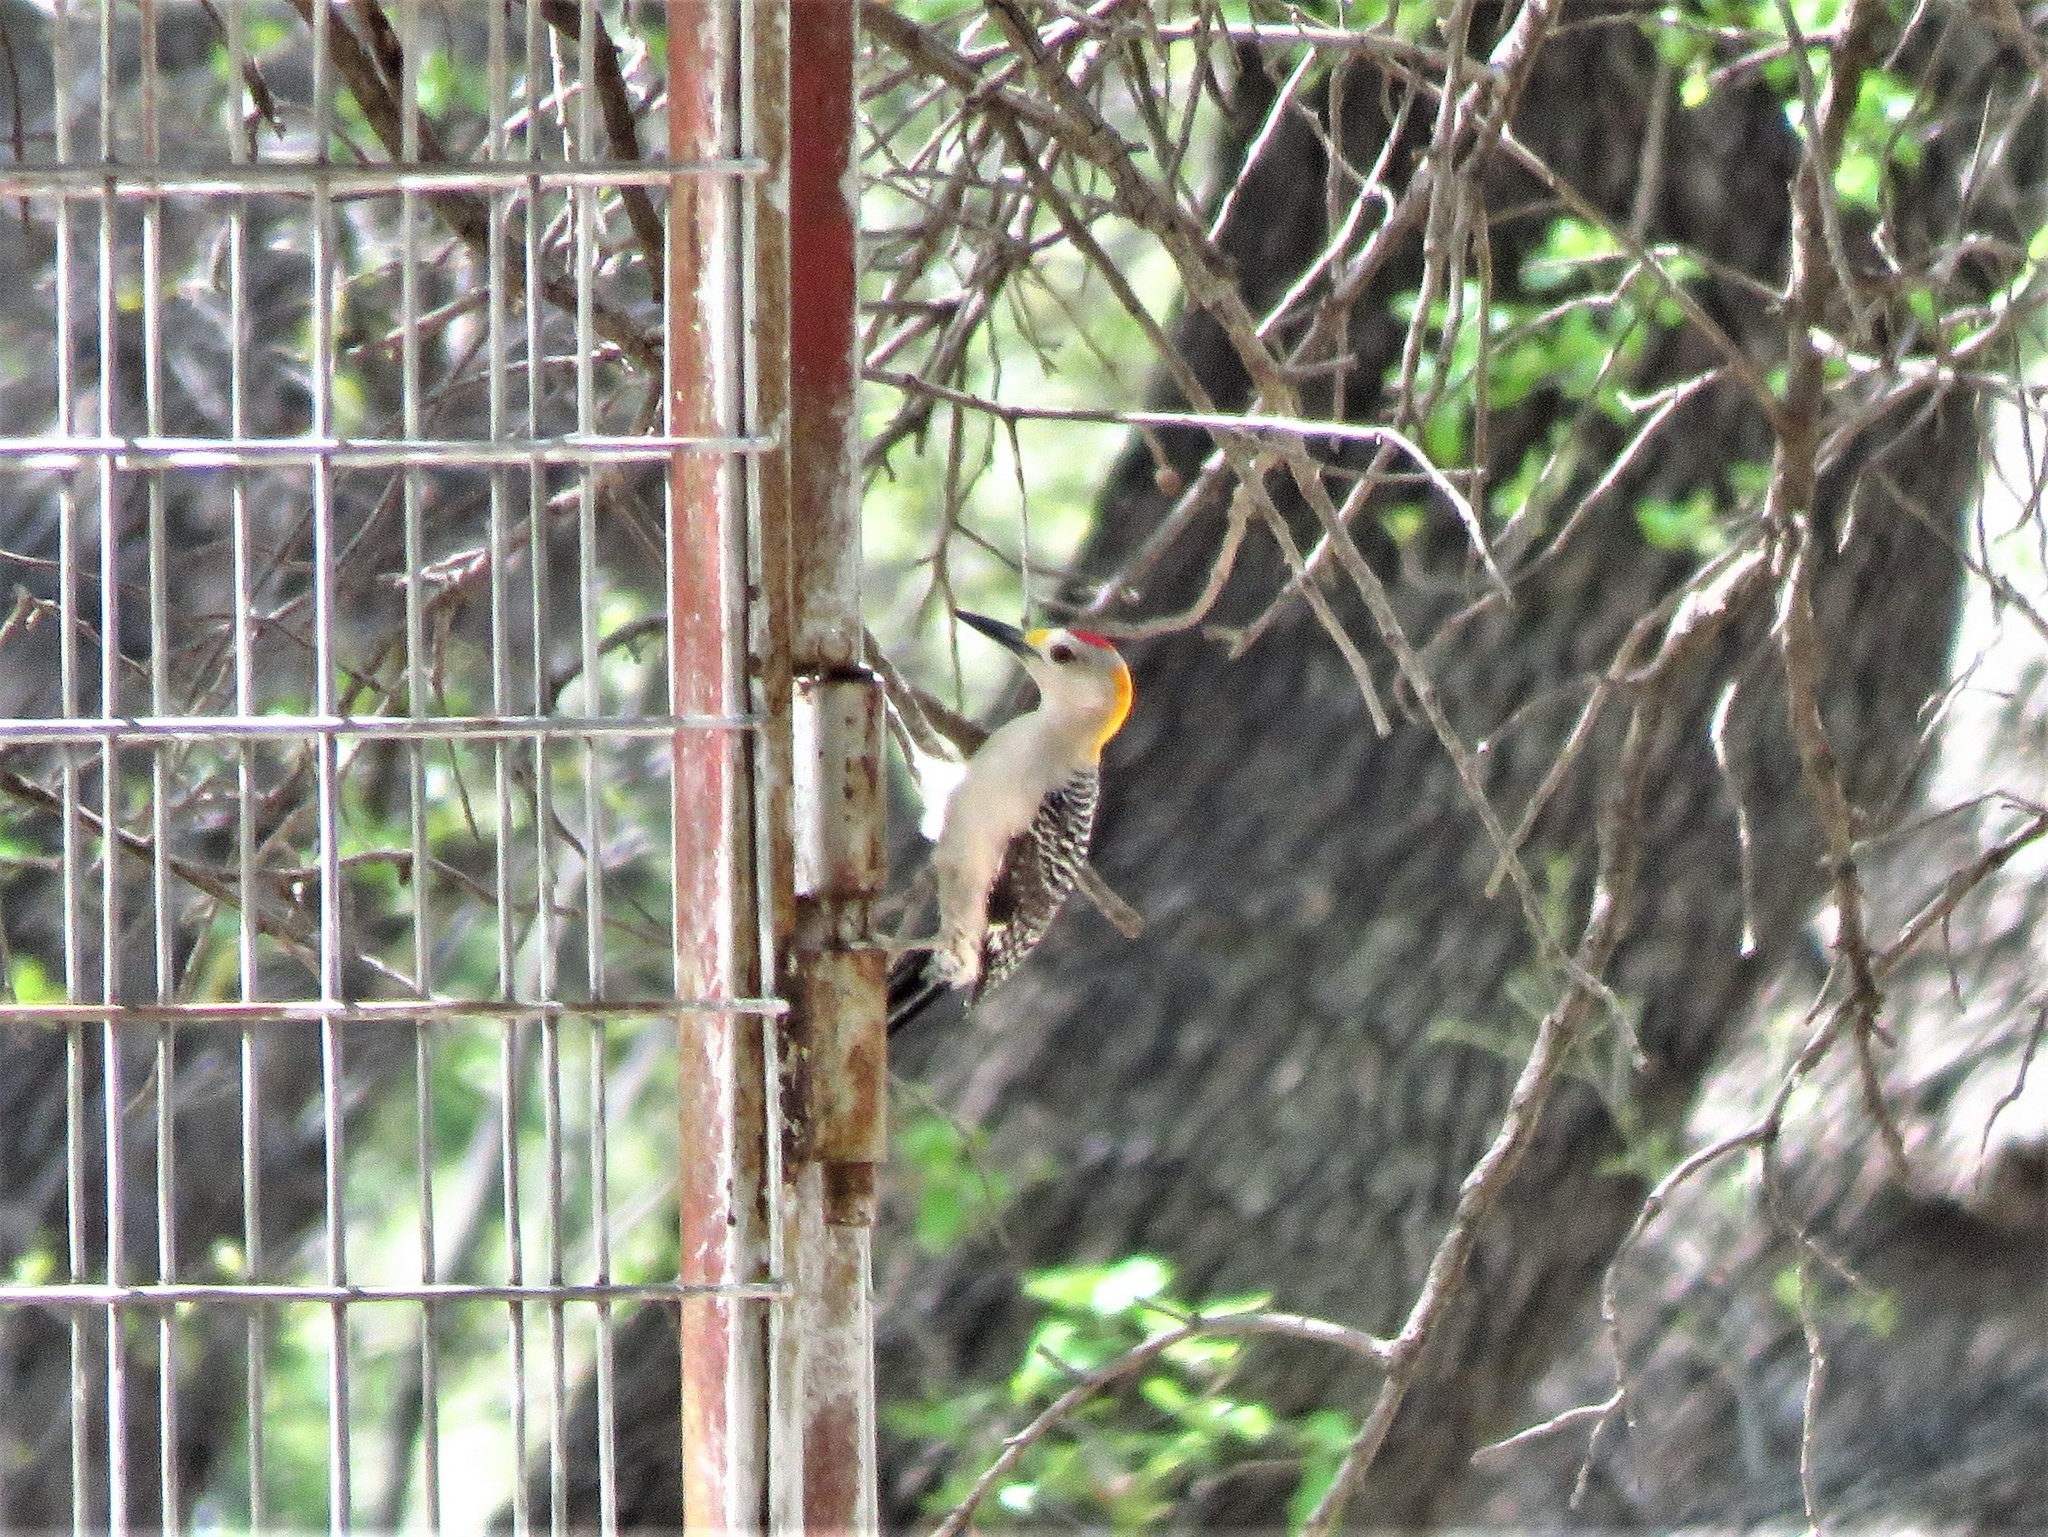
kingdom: Animalia
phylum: Chordata
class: Aves
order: Piciformes
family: Picidae
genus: Melanerpes
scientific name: Melanerpes aurifrons
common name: Golden-fronted woodpecker
